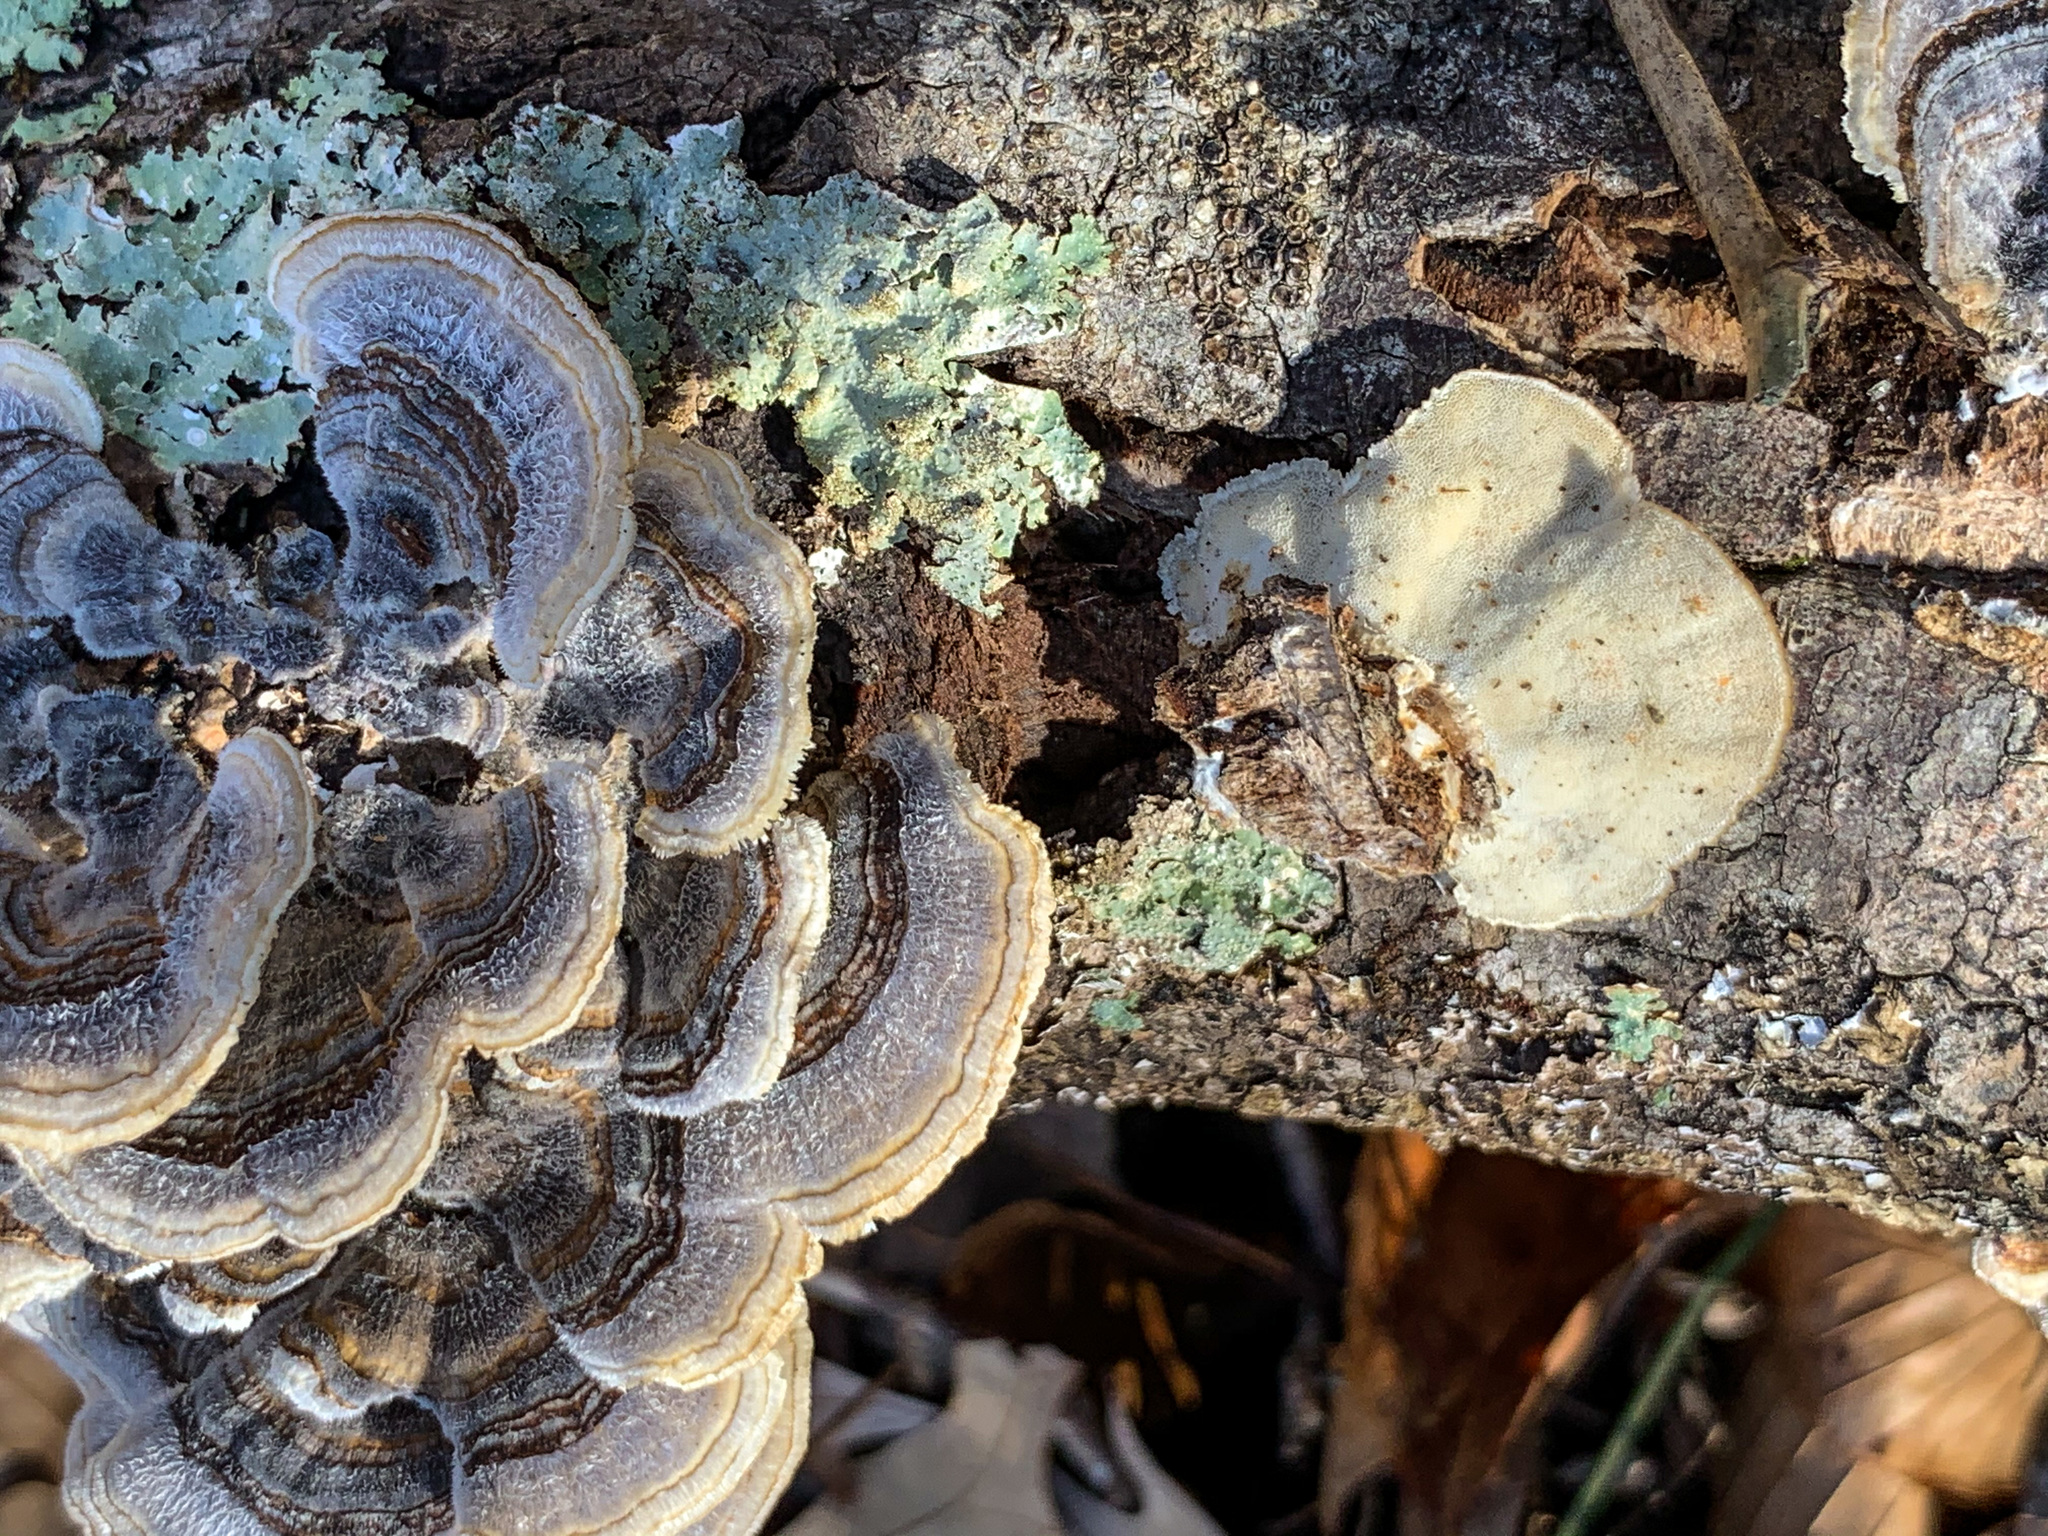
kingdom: Fungi
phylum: Basidiomycota
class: Agaricomycetes
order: Polyporales
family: Polyporaceae
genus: Trametes
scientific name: Trametes versicolor
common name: Turkeytail
